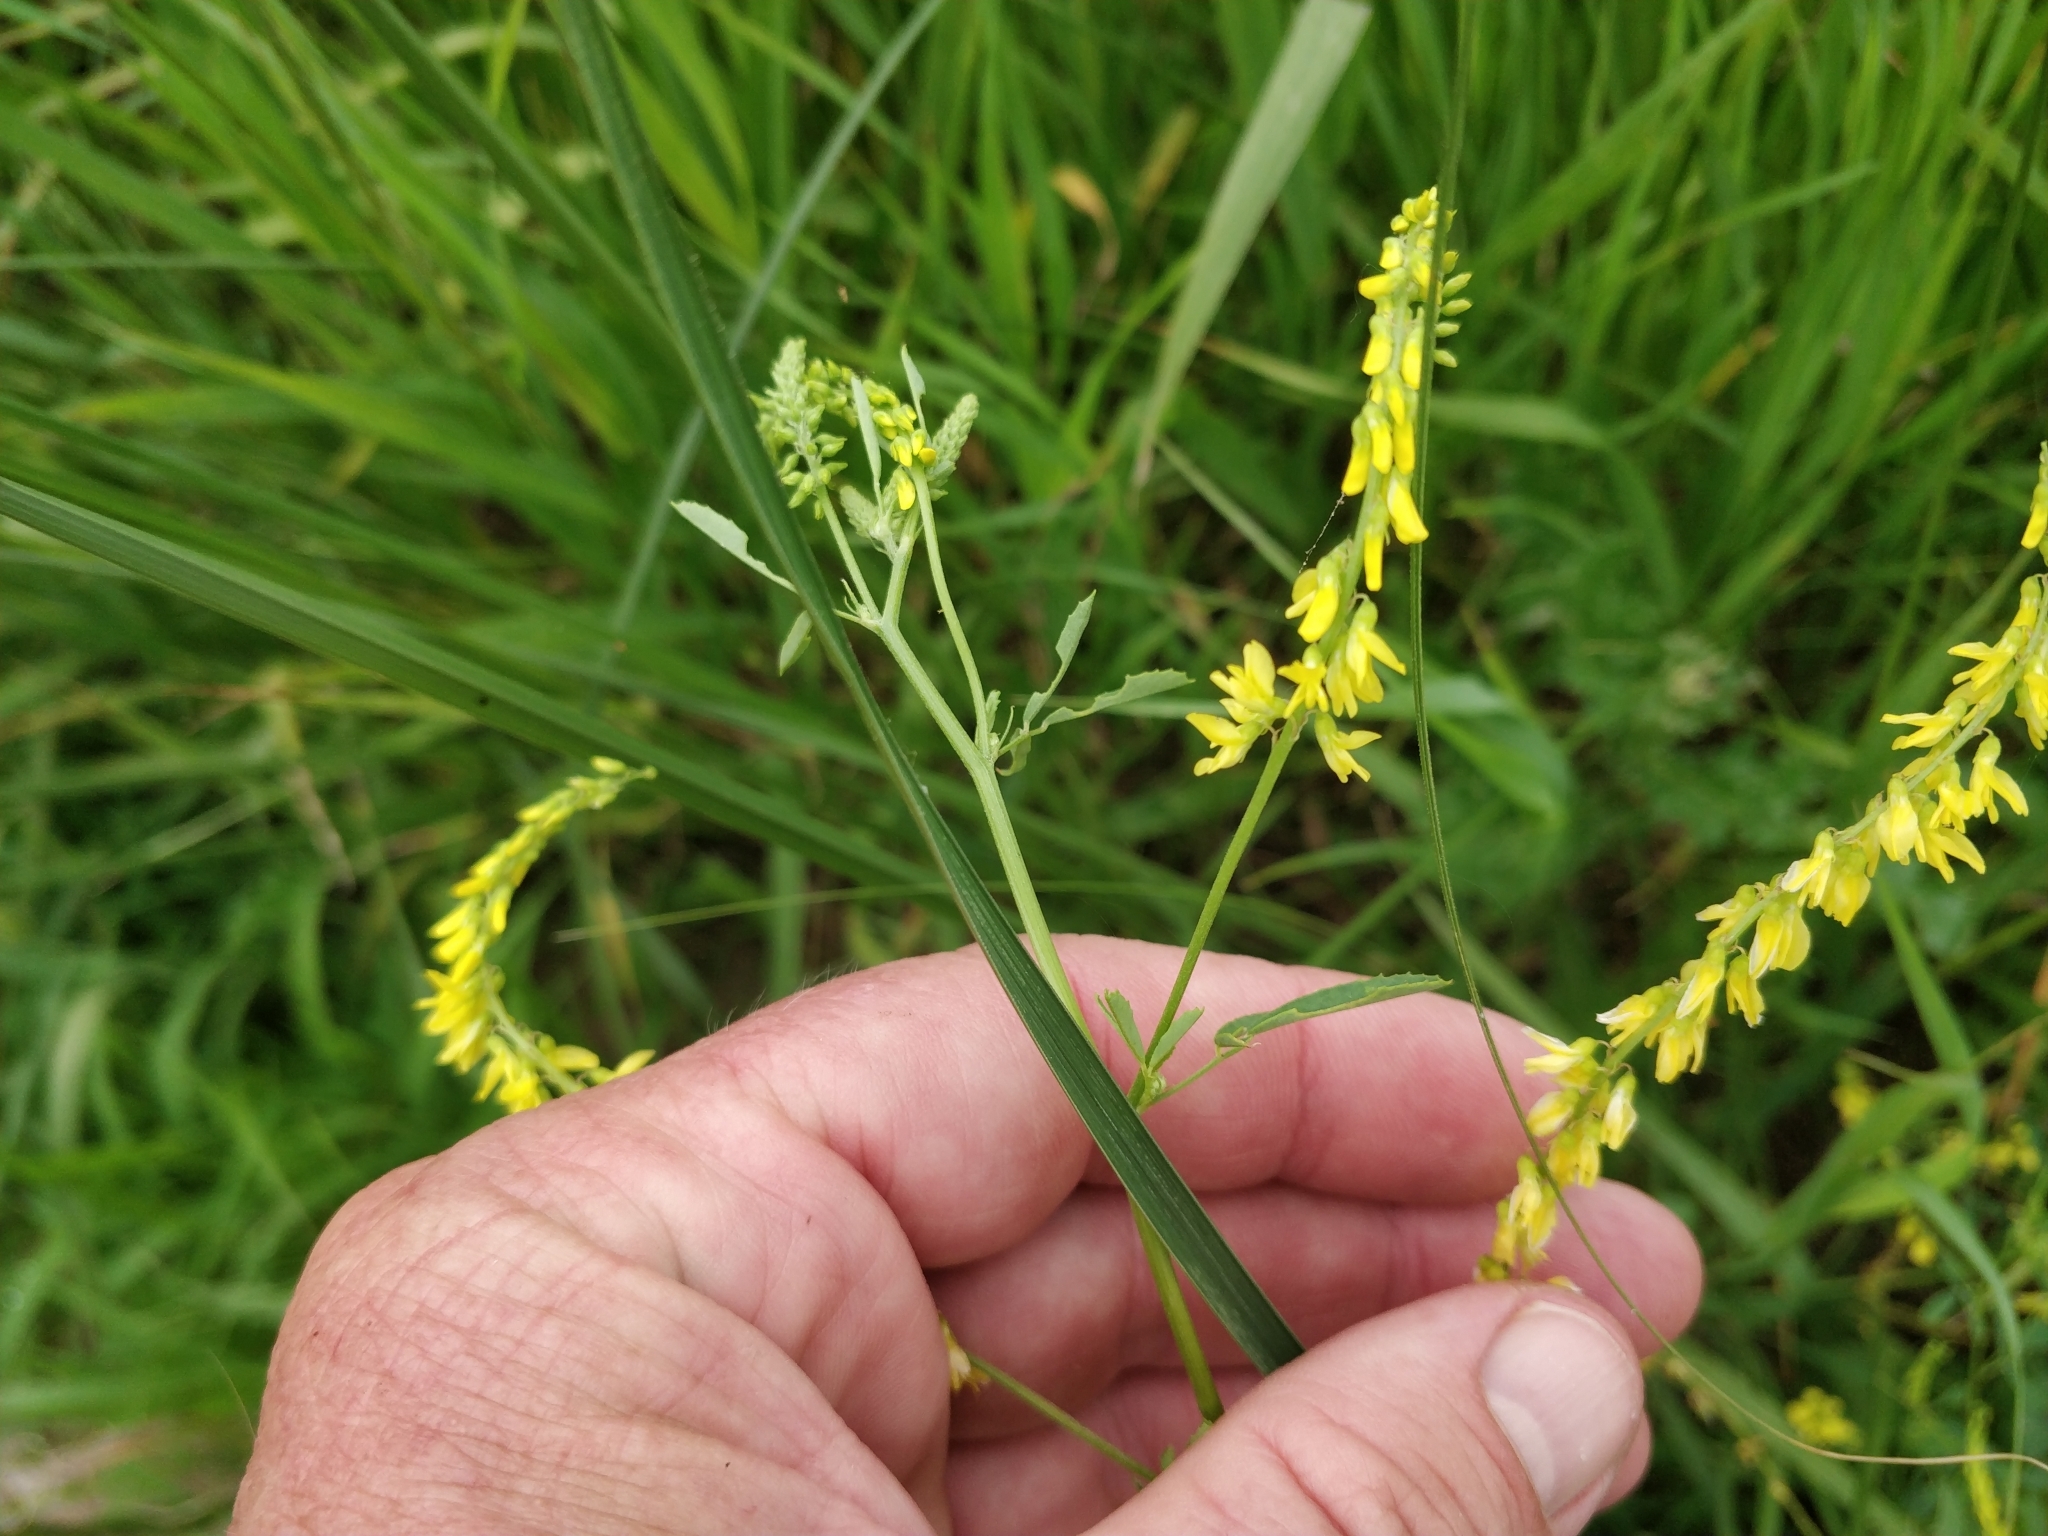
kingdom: Plantae
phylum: Tracheophyta
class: Magnoliopsida
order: Fabales
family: Fabaceae
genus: Melilotus
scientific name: Melilotus officinalis
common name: Sweetclover
